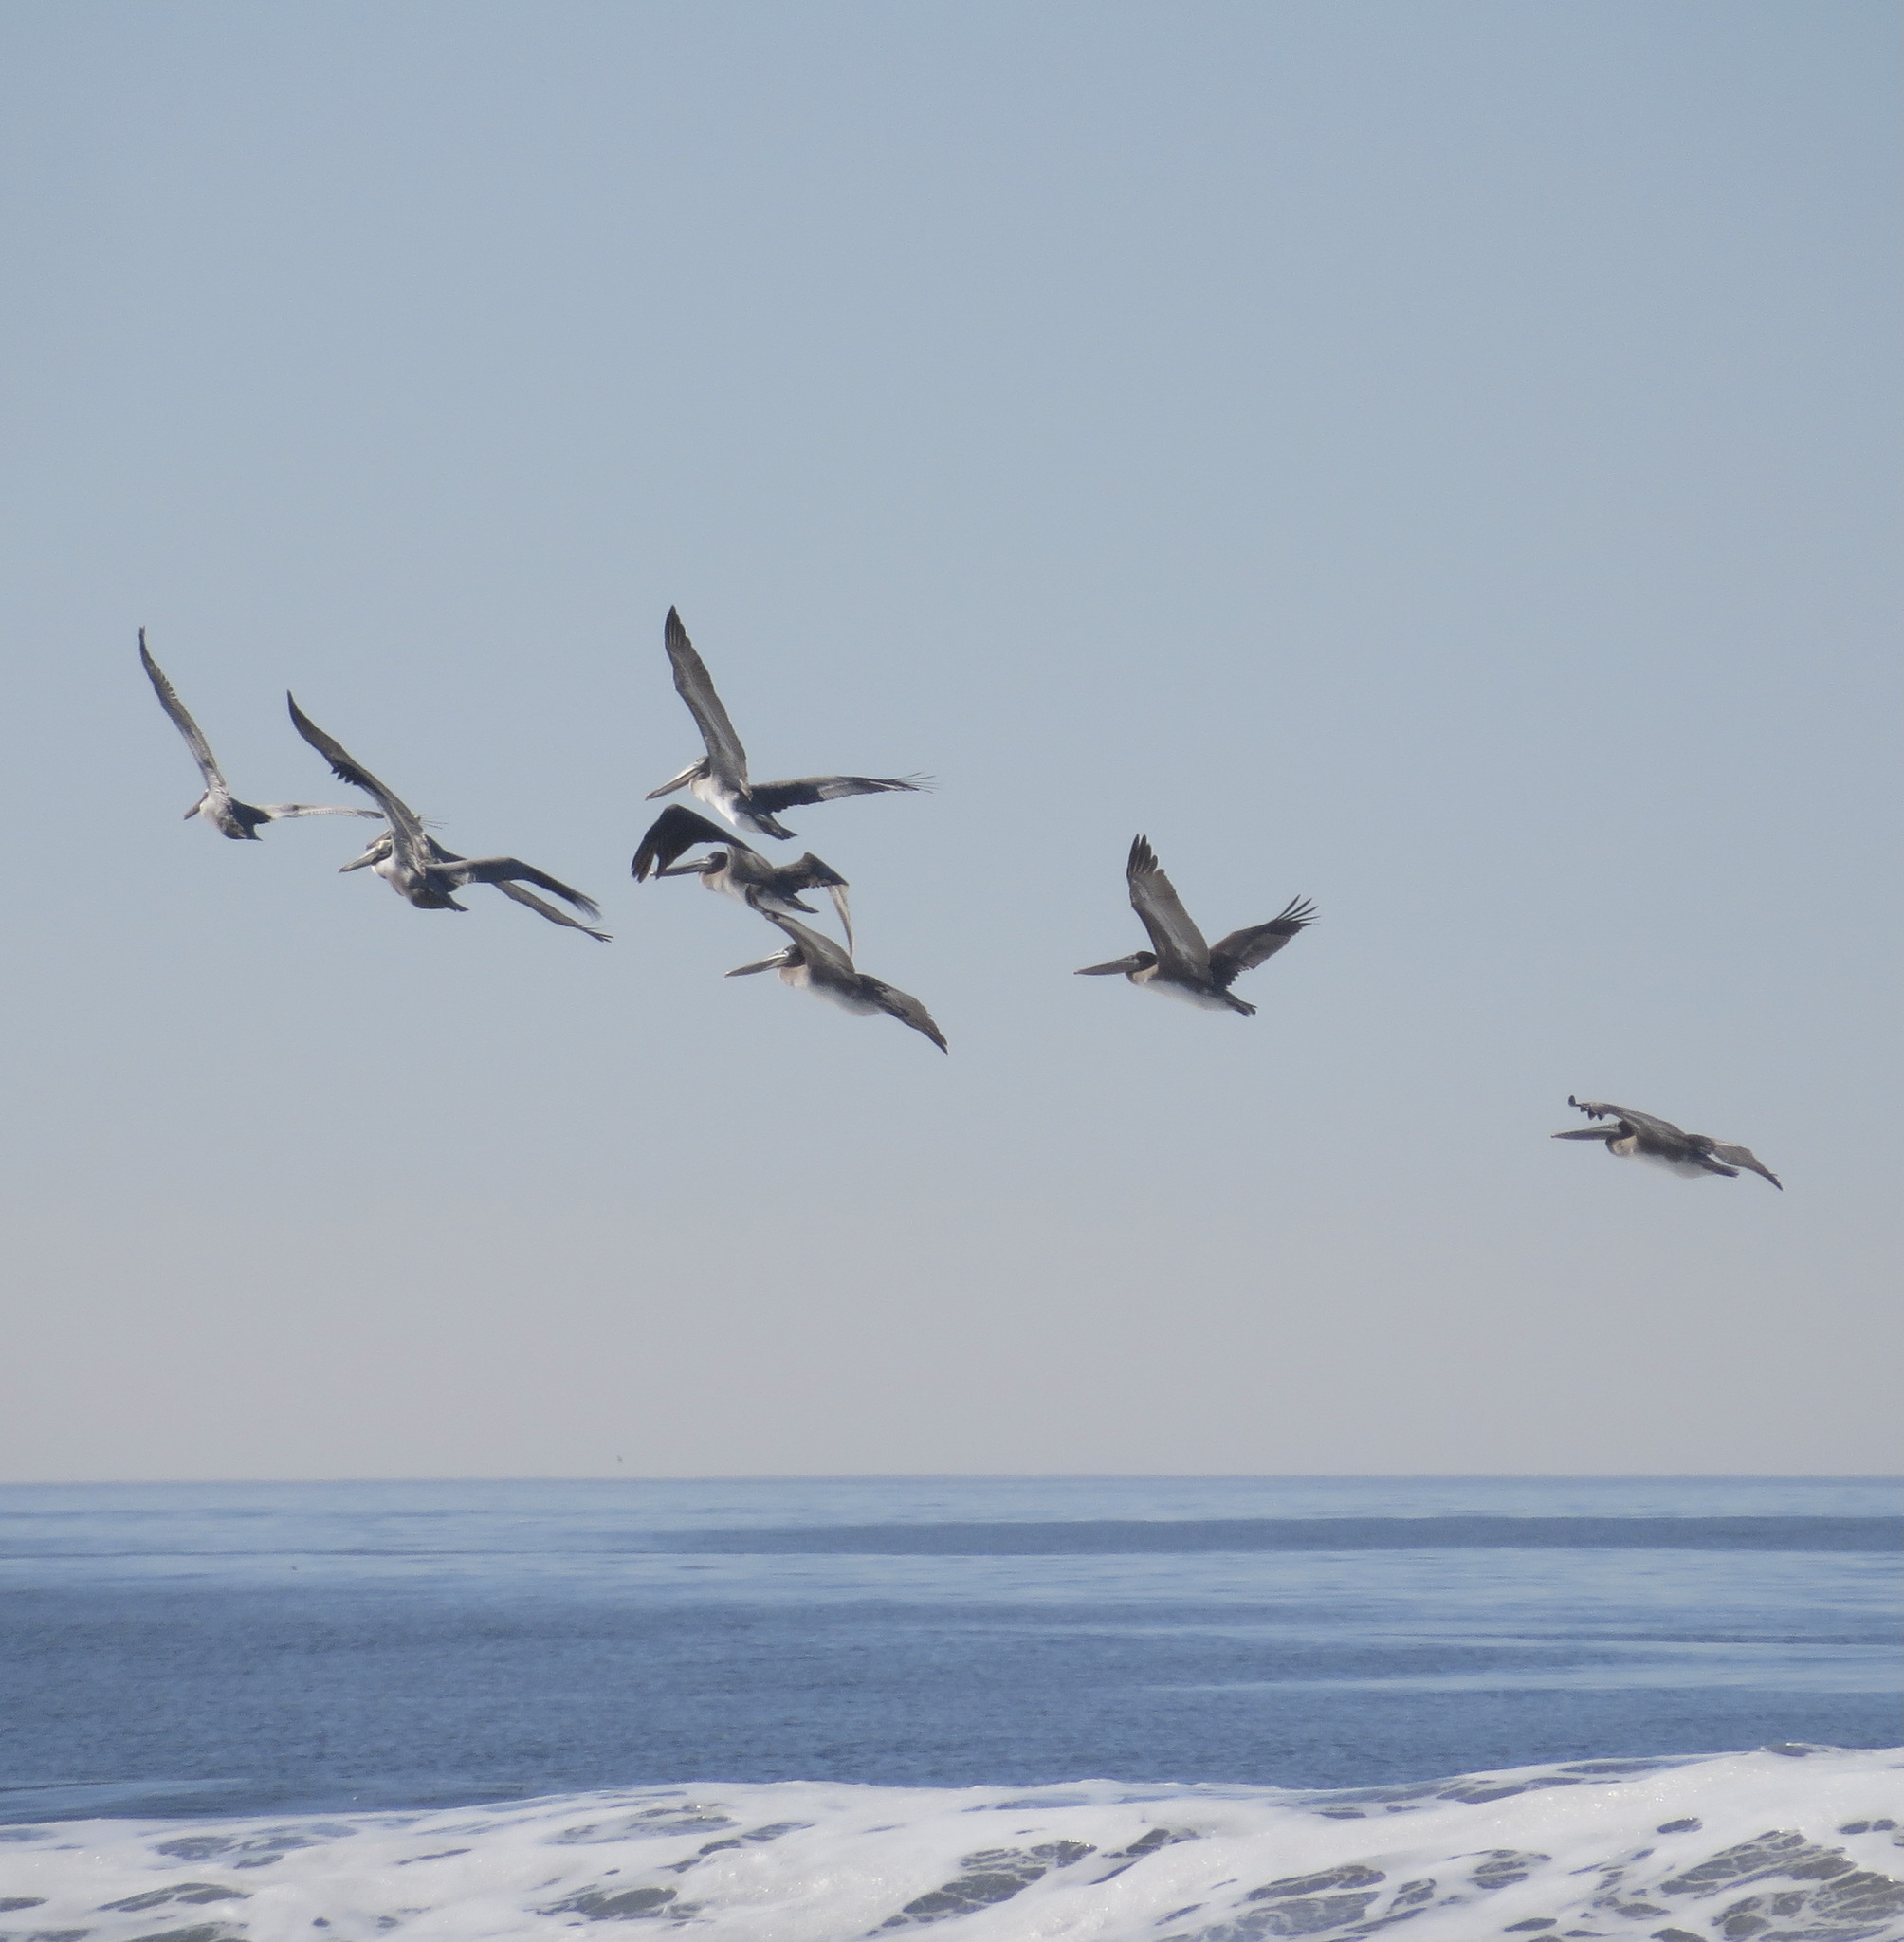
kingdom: Animalia
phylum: Chordata
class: Aves
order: Pelecaniformes
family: Pelecanidae
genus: Pelecanus
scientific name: Pelecanus occidentalis
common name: Brown pelican
